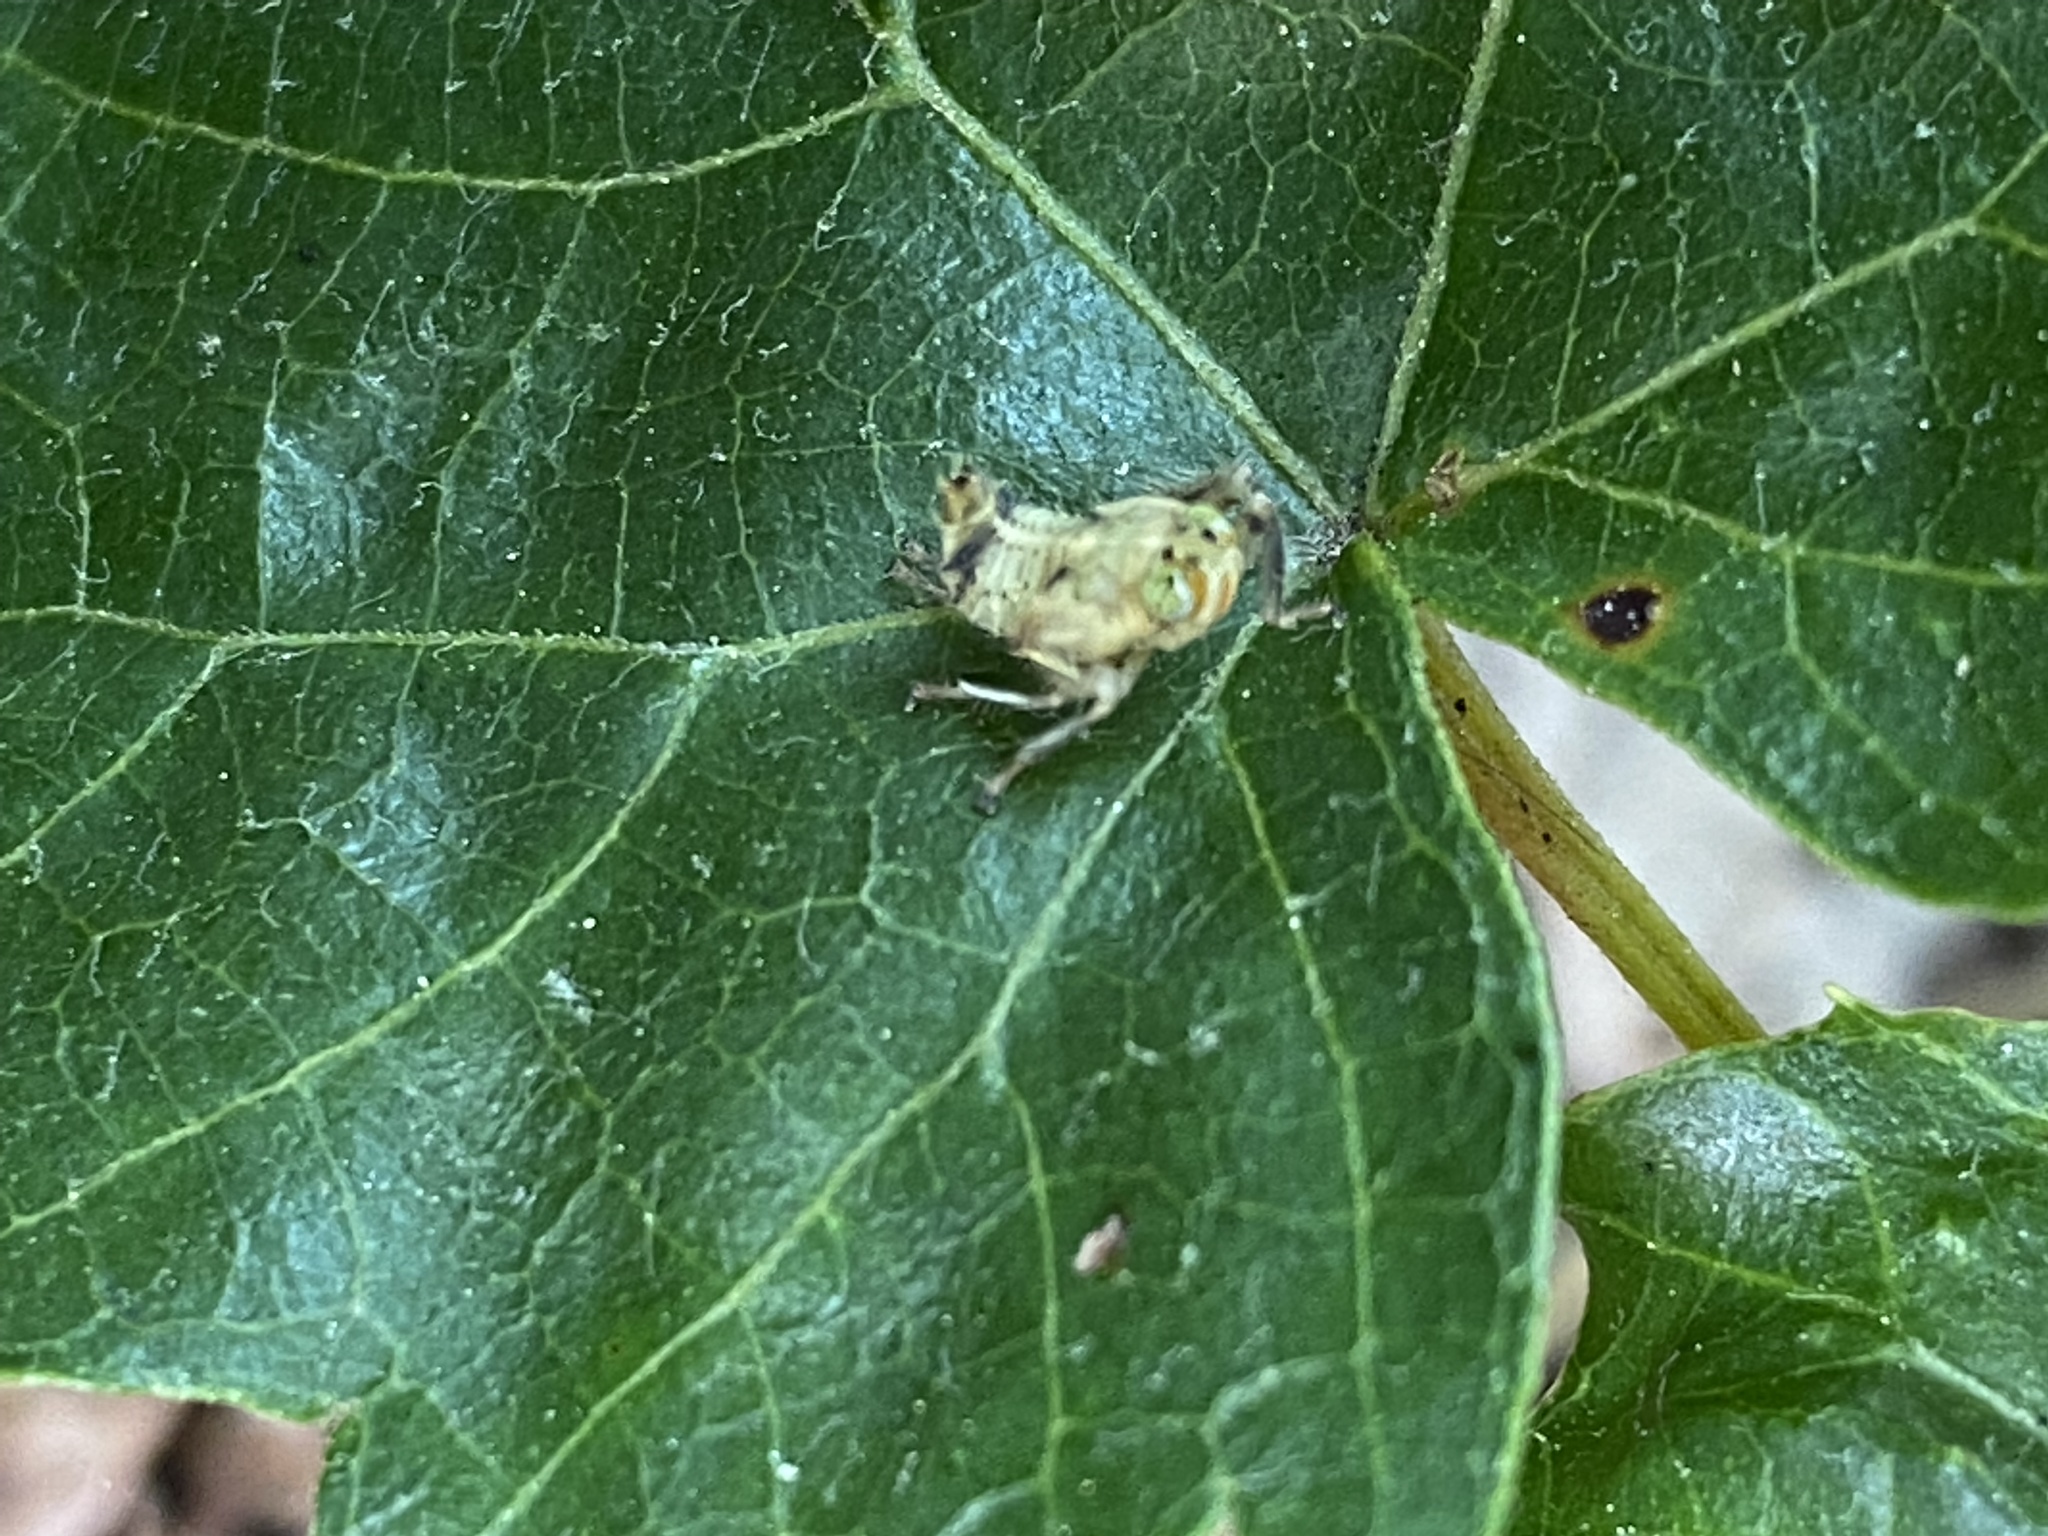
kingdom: Animalia
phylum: Arthropoda
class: Insecta
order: Hemiptera
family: Cicadellidae
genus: Jikradia
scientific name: Jikradia olitoria
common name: Coppery leafhopper
